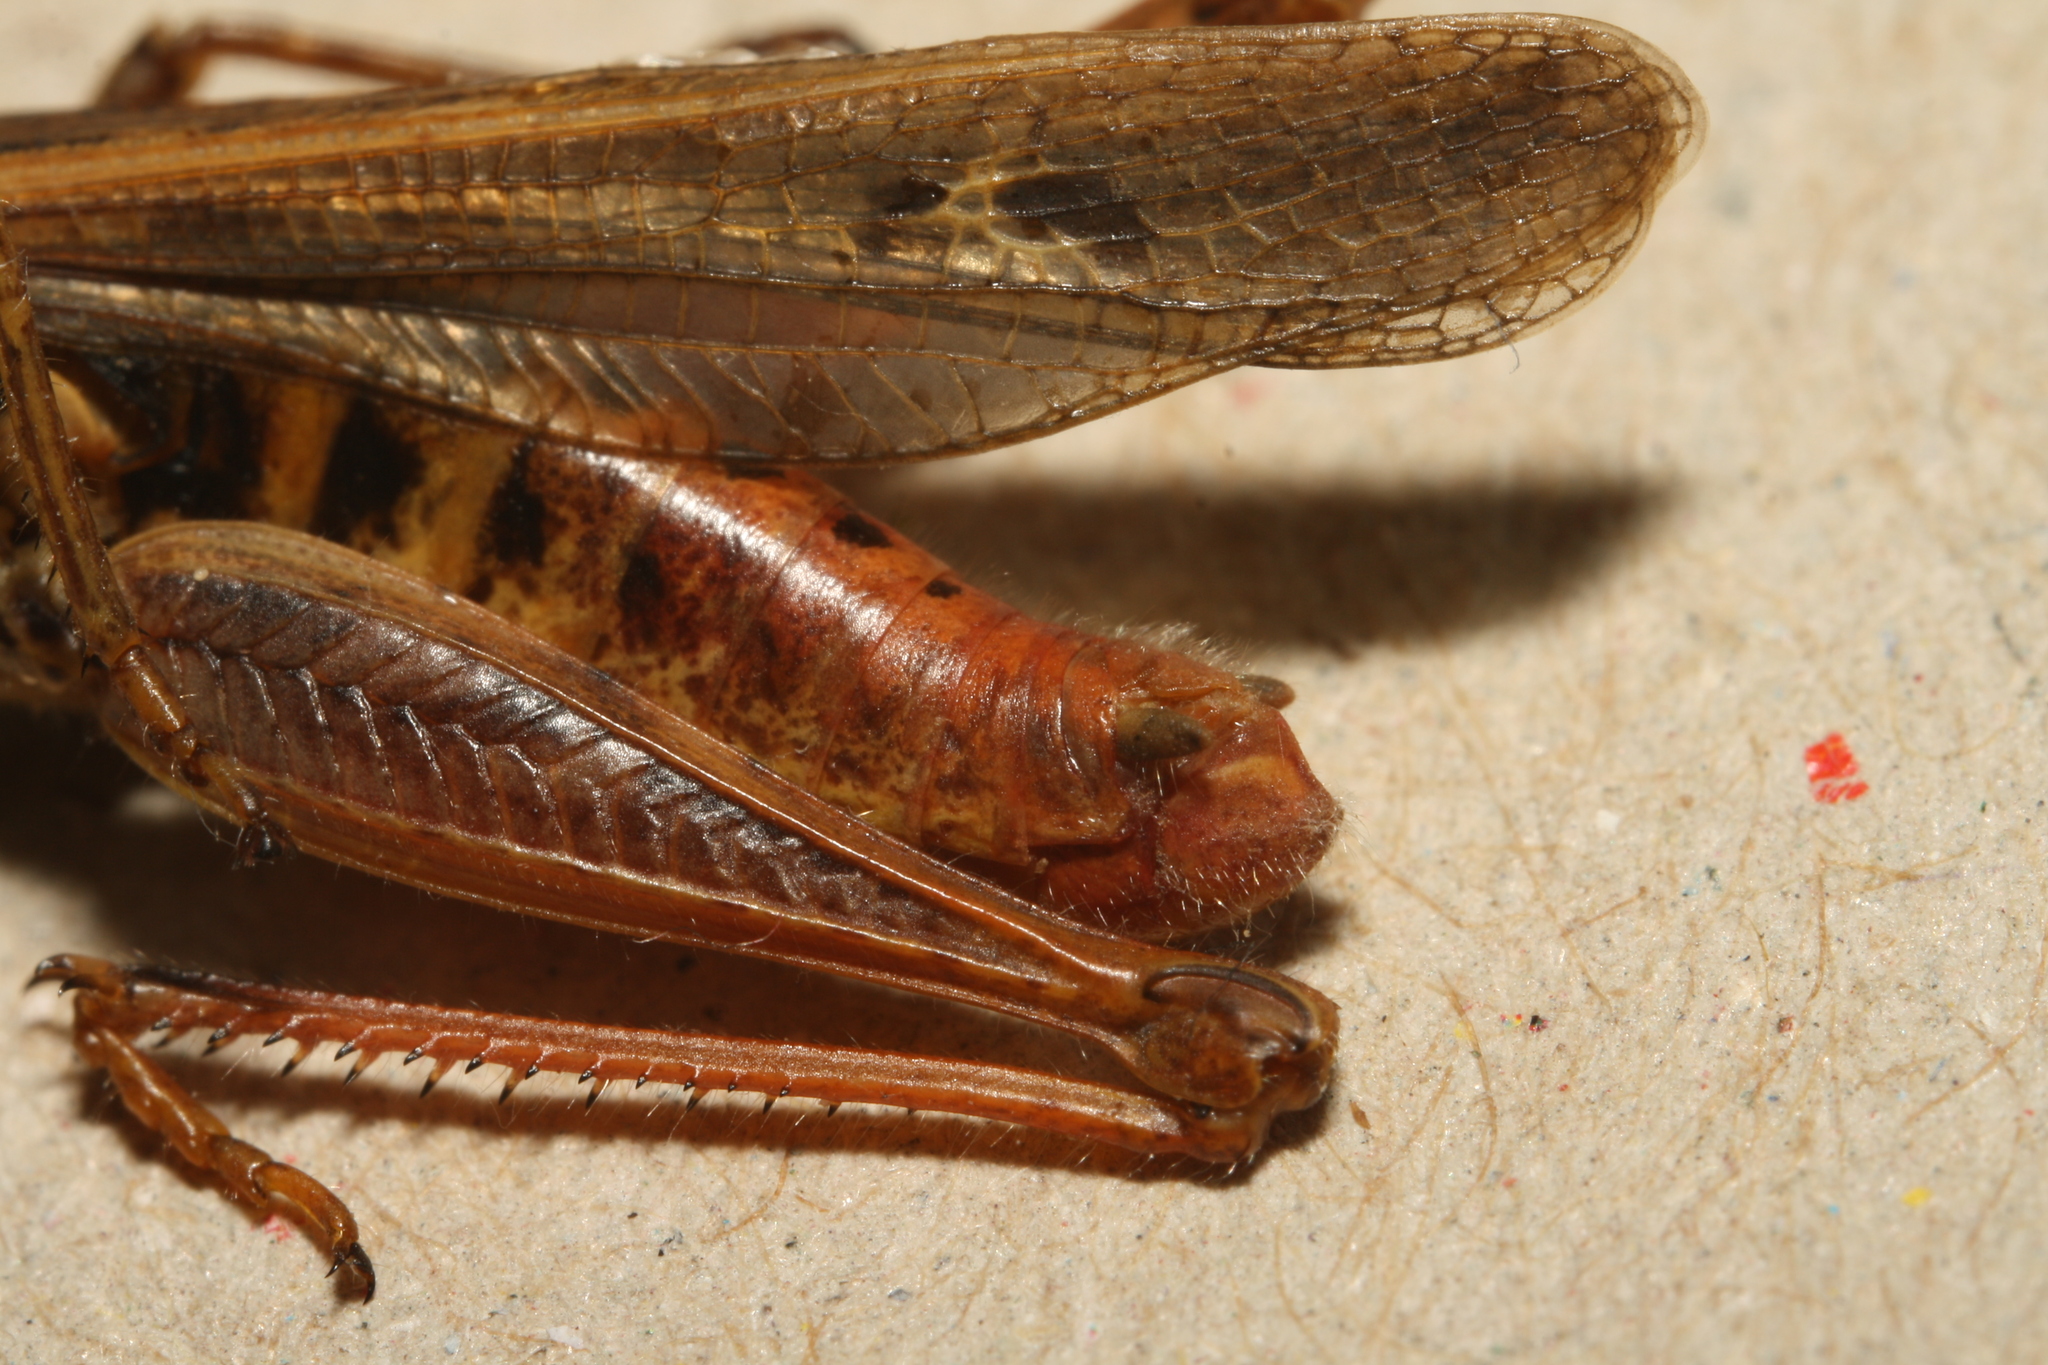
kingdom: Animalia
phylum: Arthropoda
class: Insecta
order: Orthoptera
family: Acrididae
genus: Chorthippus
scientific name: Chorthippus biguttulus
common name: Bow-winged grasshopper
